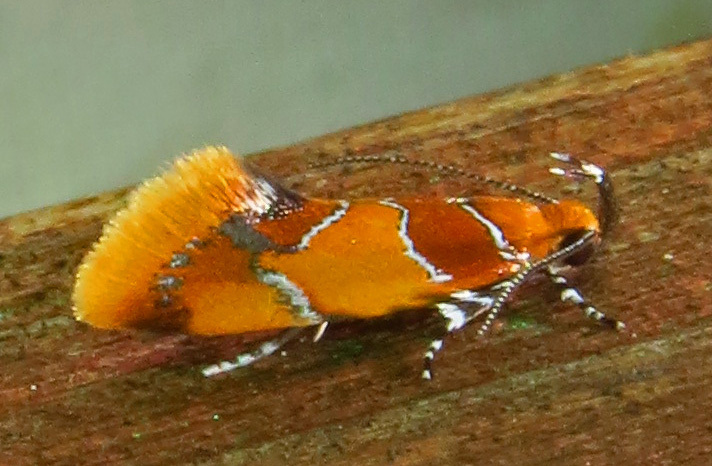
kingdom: Animalia
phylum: Arthropoda
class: Insecta
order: Lepidoptera
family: Oecophoridae
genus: Callima
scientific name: Callima argenticinctella
